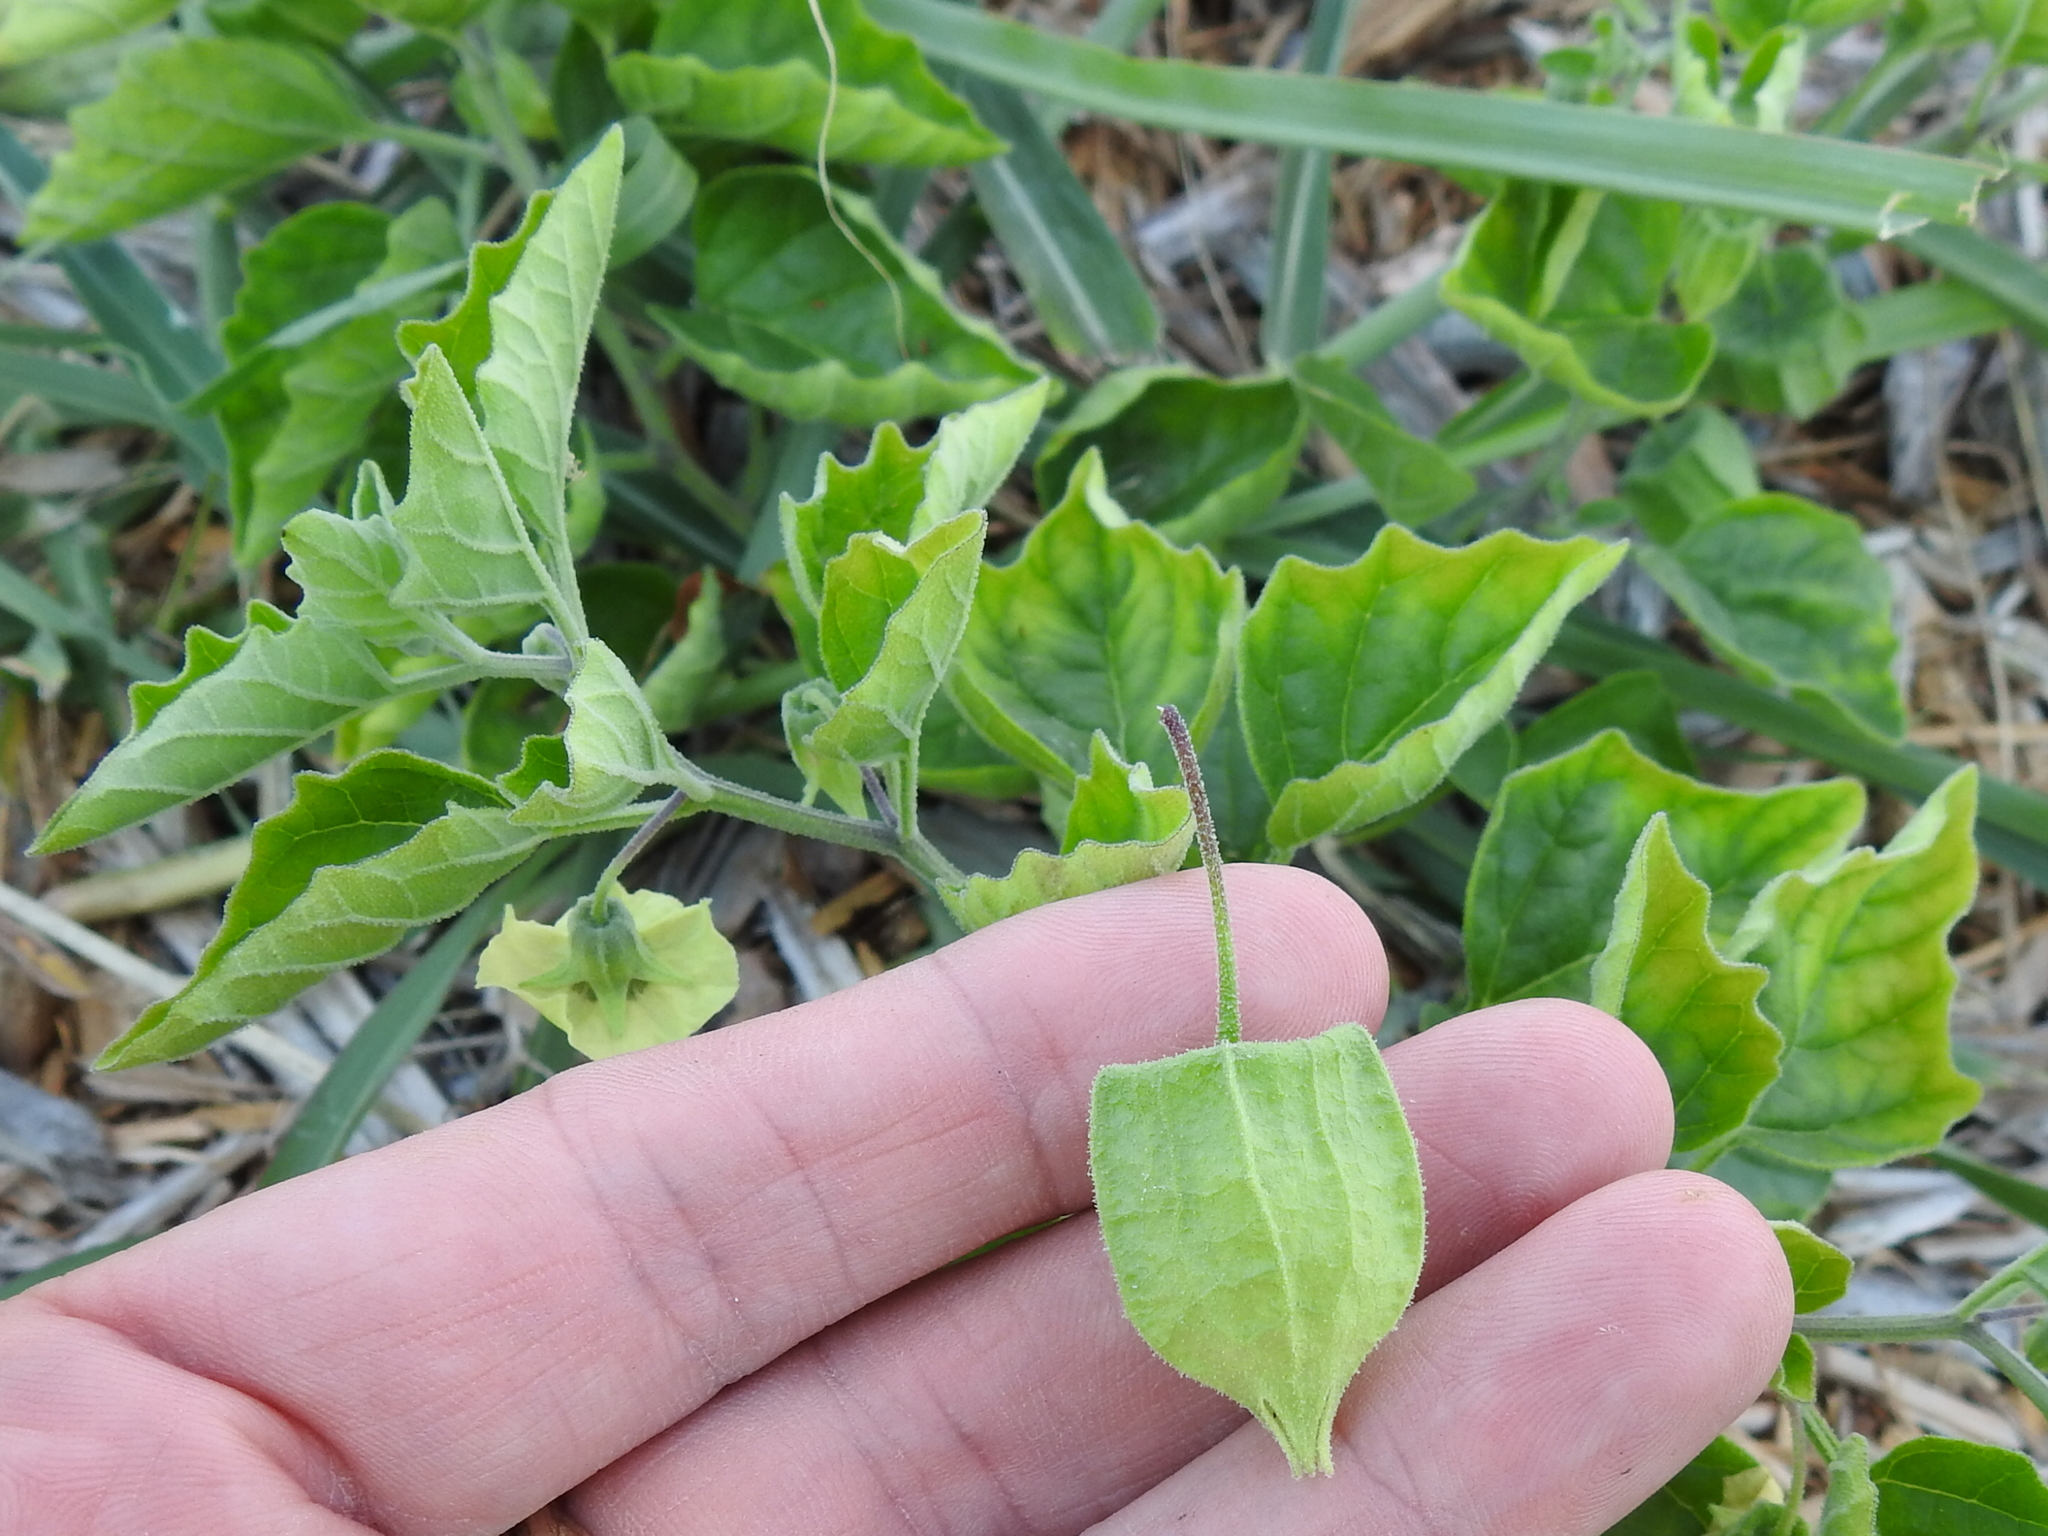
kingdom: Plantae
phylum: Tracheophyta
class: Magnoliopsida
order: Solanales
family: Solanaceae
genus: Physalis
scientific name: Physalis cinerascens
